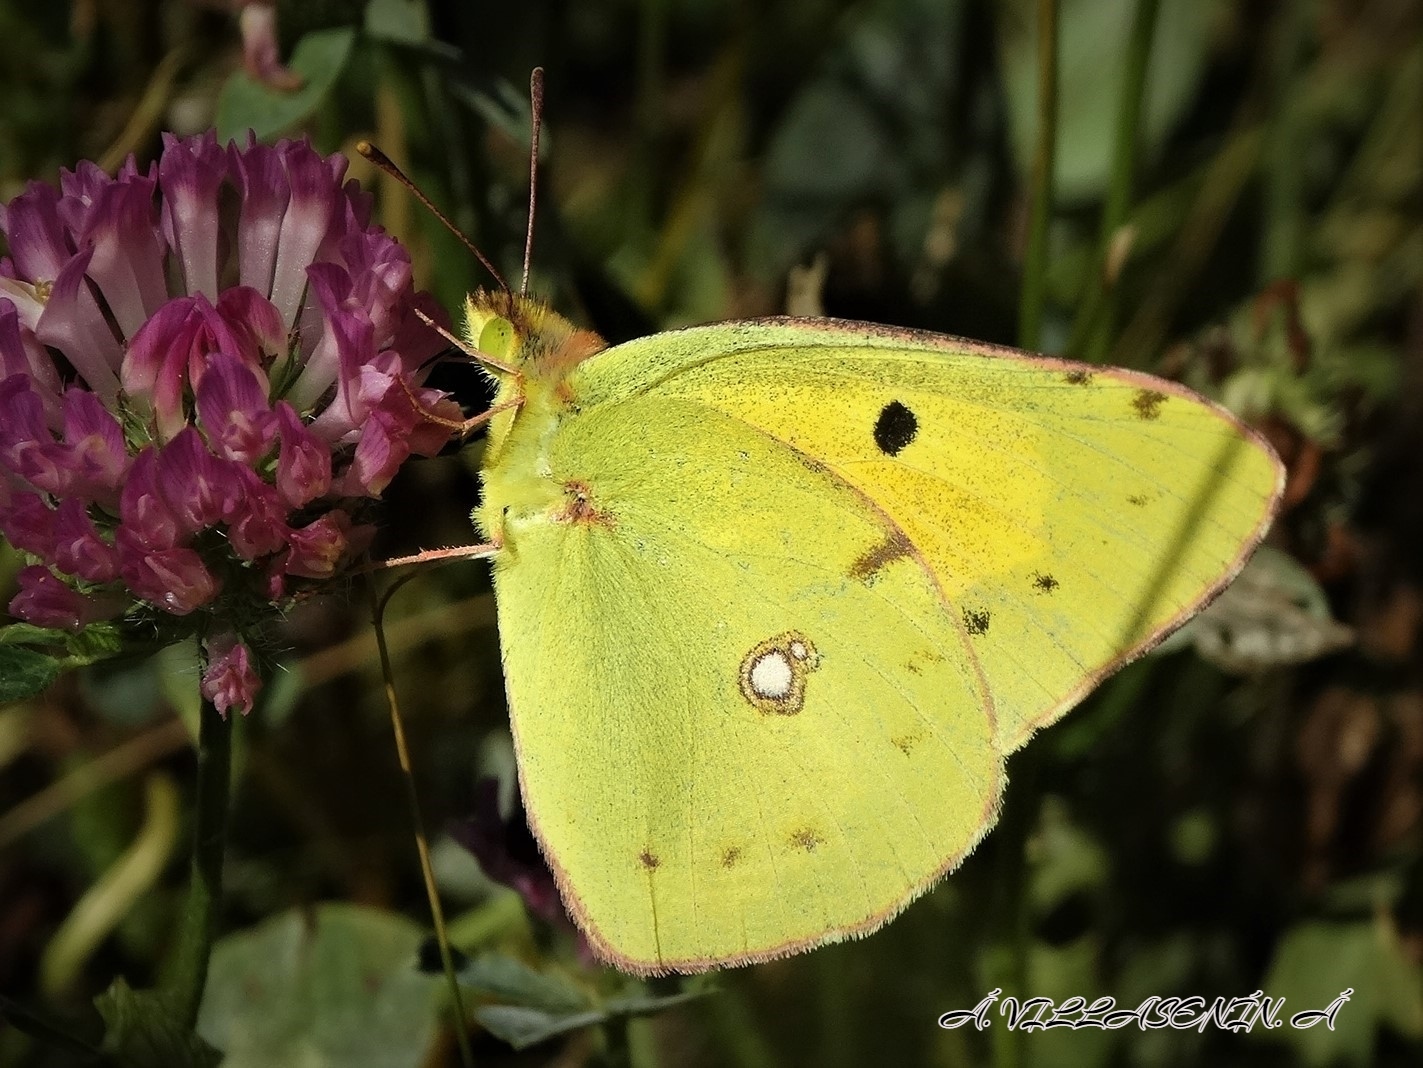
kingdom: Animalia
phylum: Arthropoda
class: Insecta
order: Lepidoptera
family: Pieridae
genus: Colias
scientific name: Colias croceus
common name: Clouded yellow
